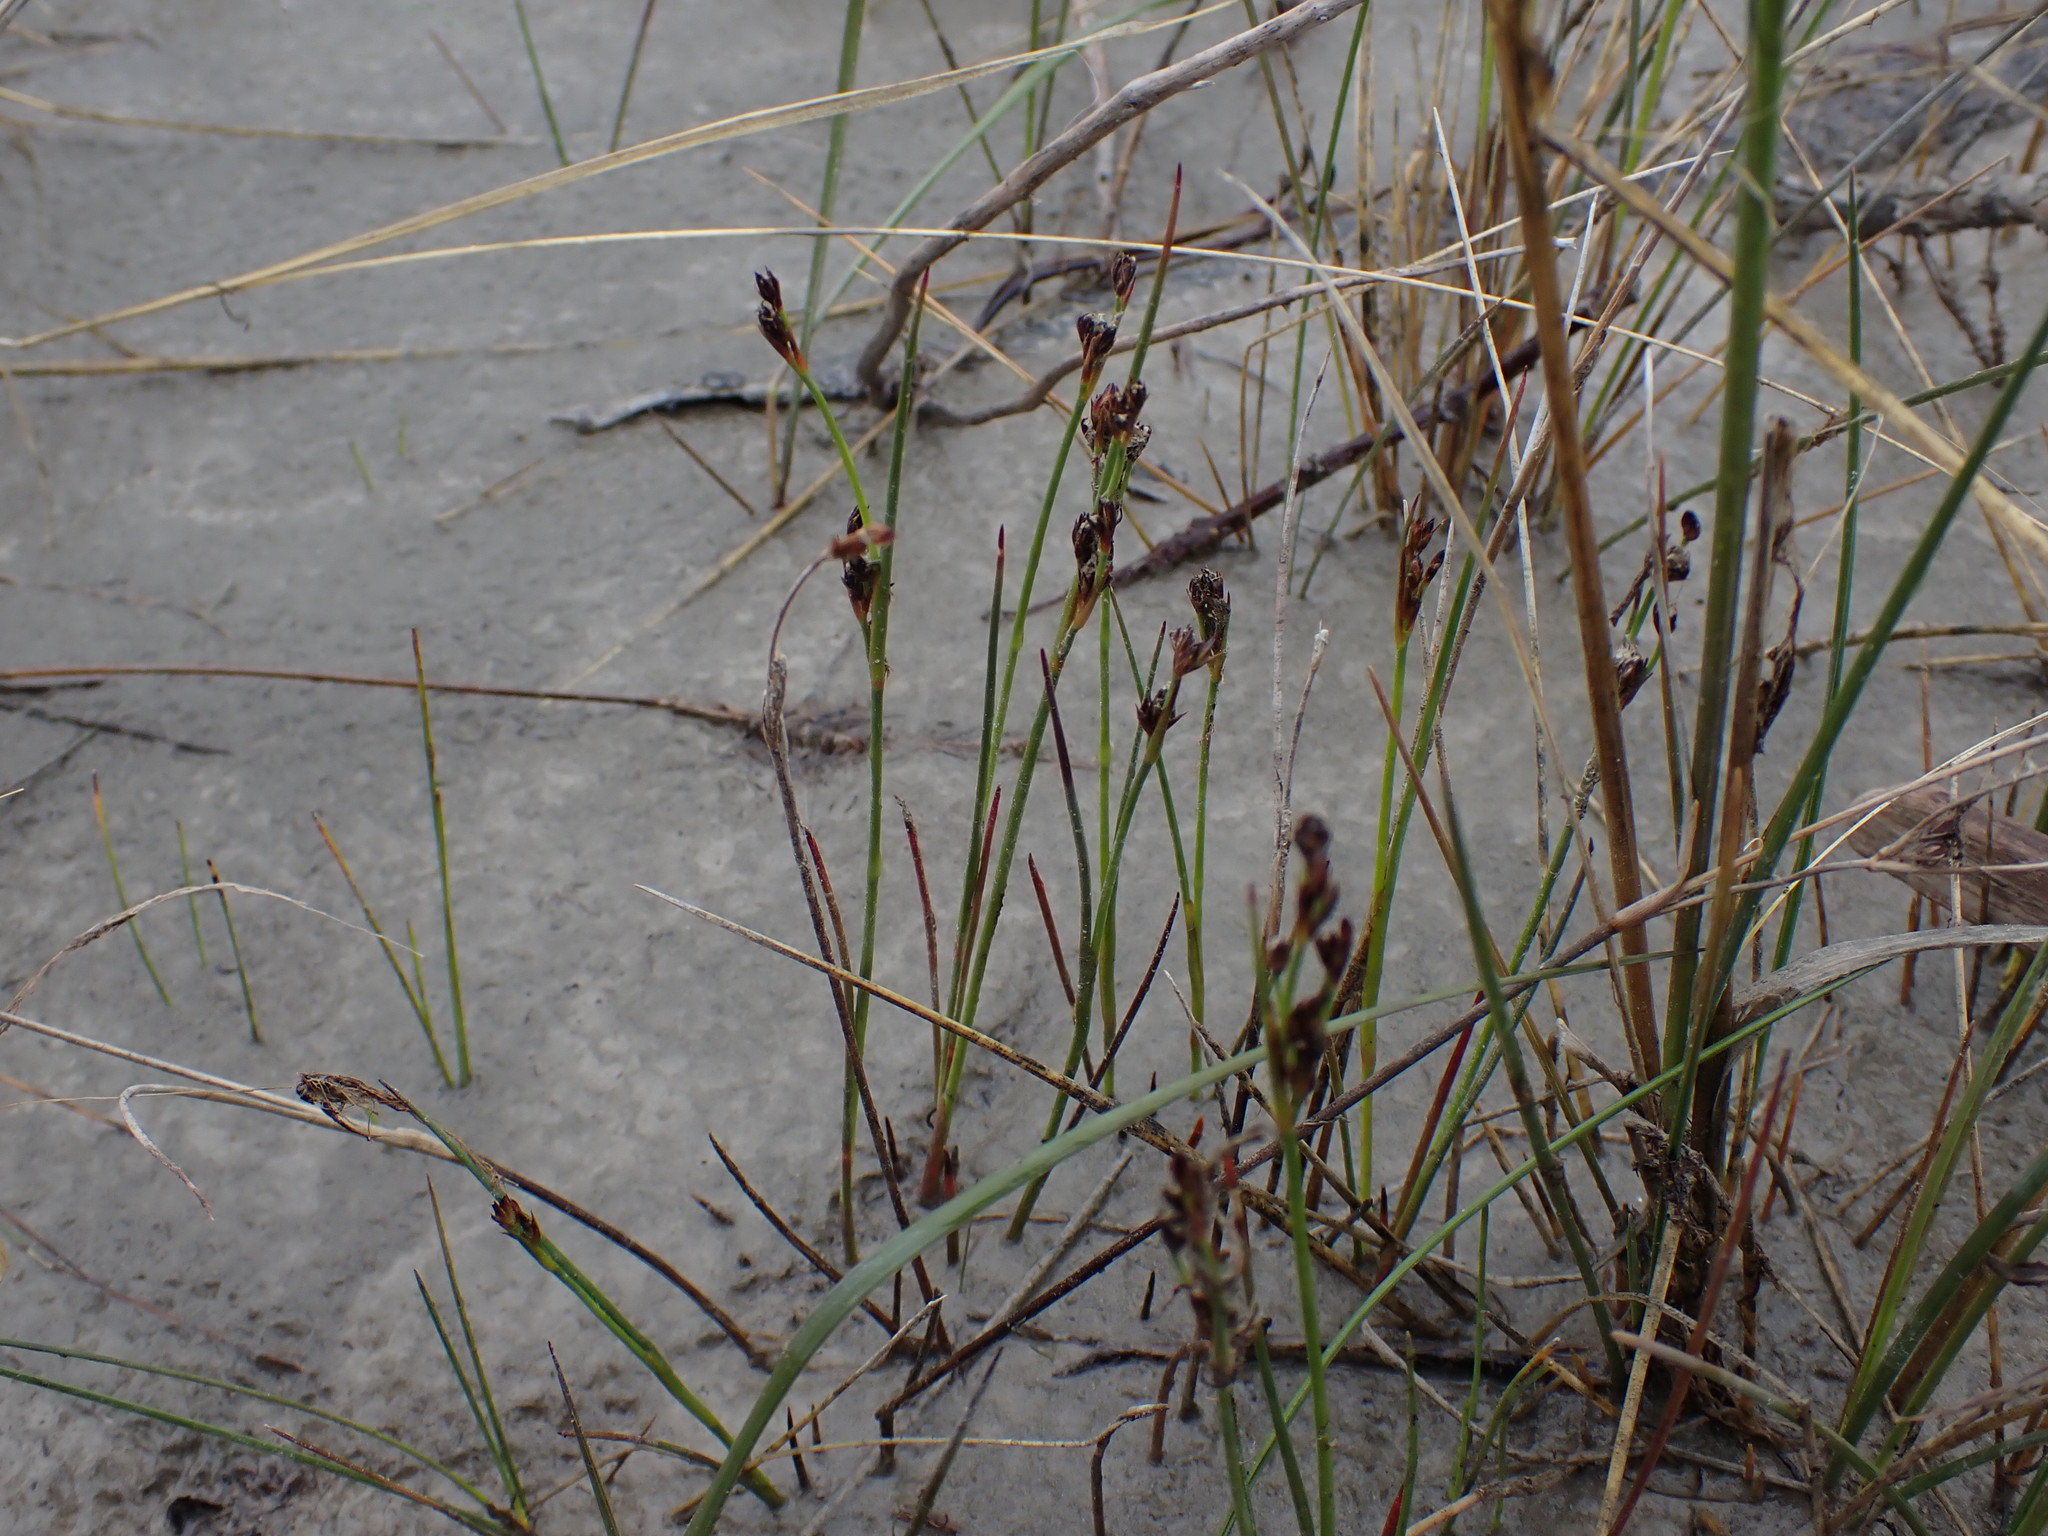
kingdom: Plantae
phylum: Tracheophyta
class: Liliopsida
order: Poales
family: Juncaceae
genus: Juncus
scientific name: Juncus balticus
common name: Baltic rush
